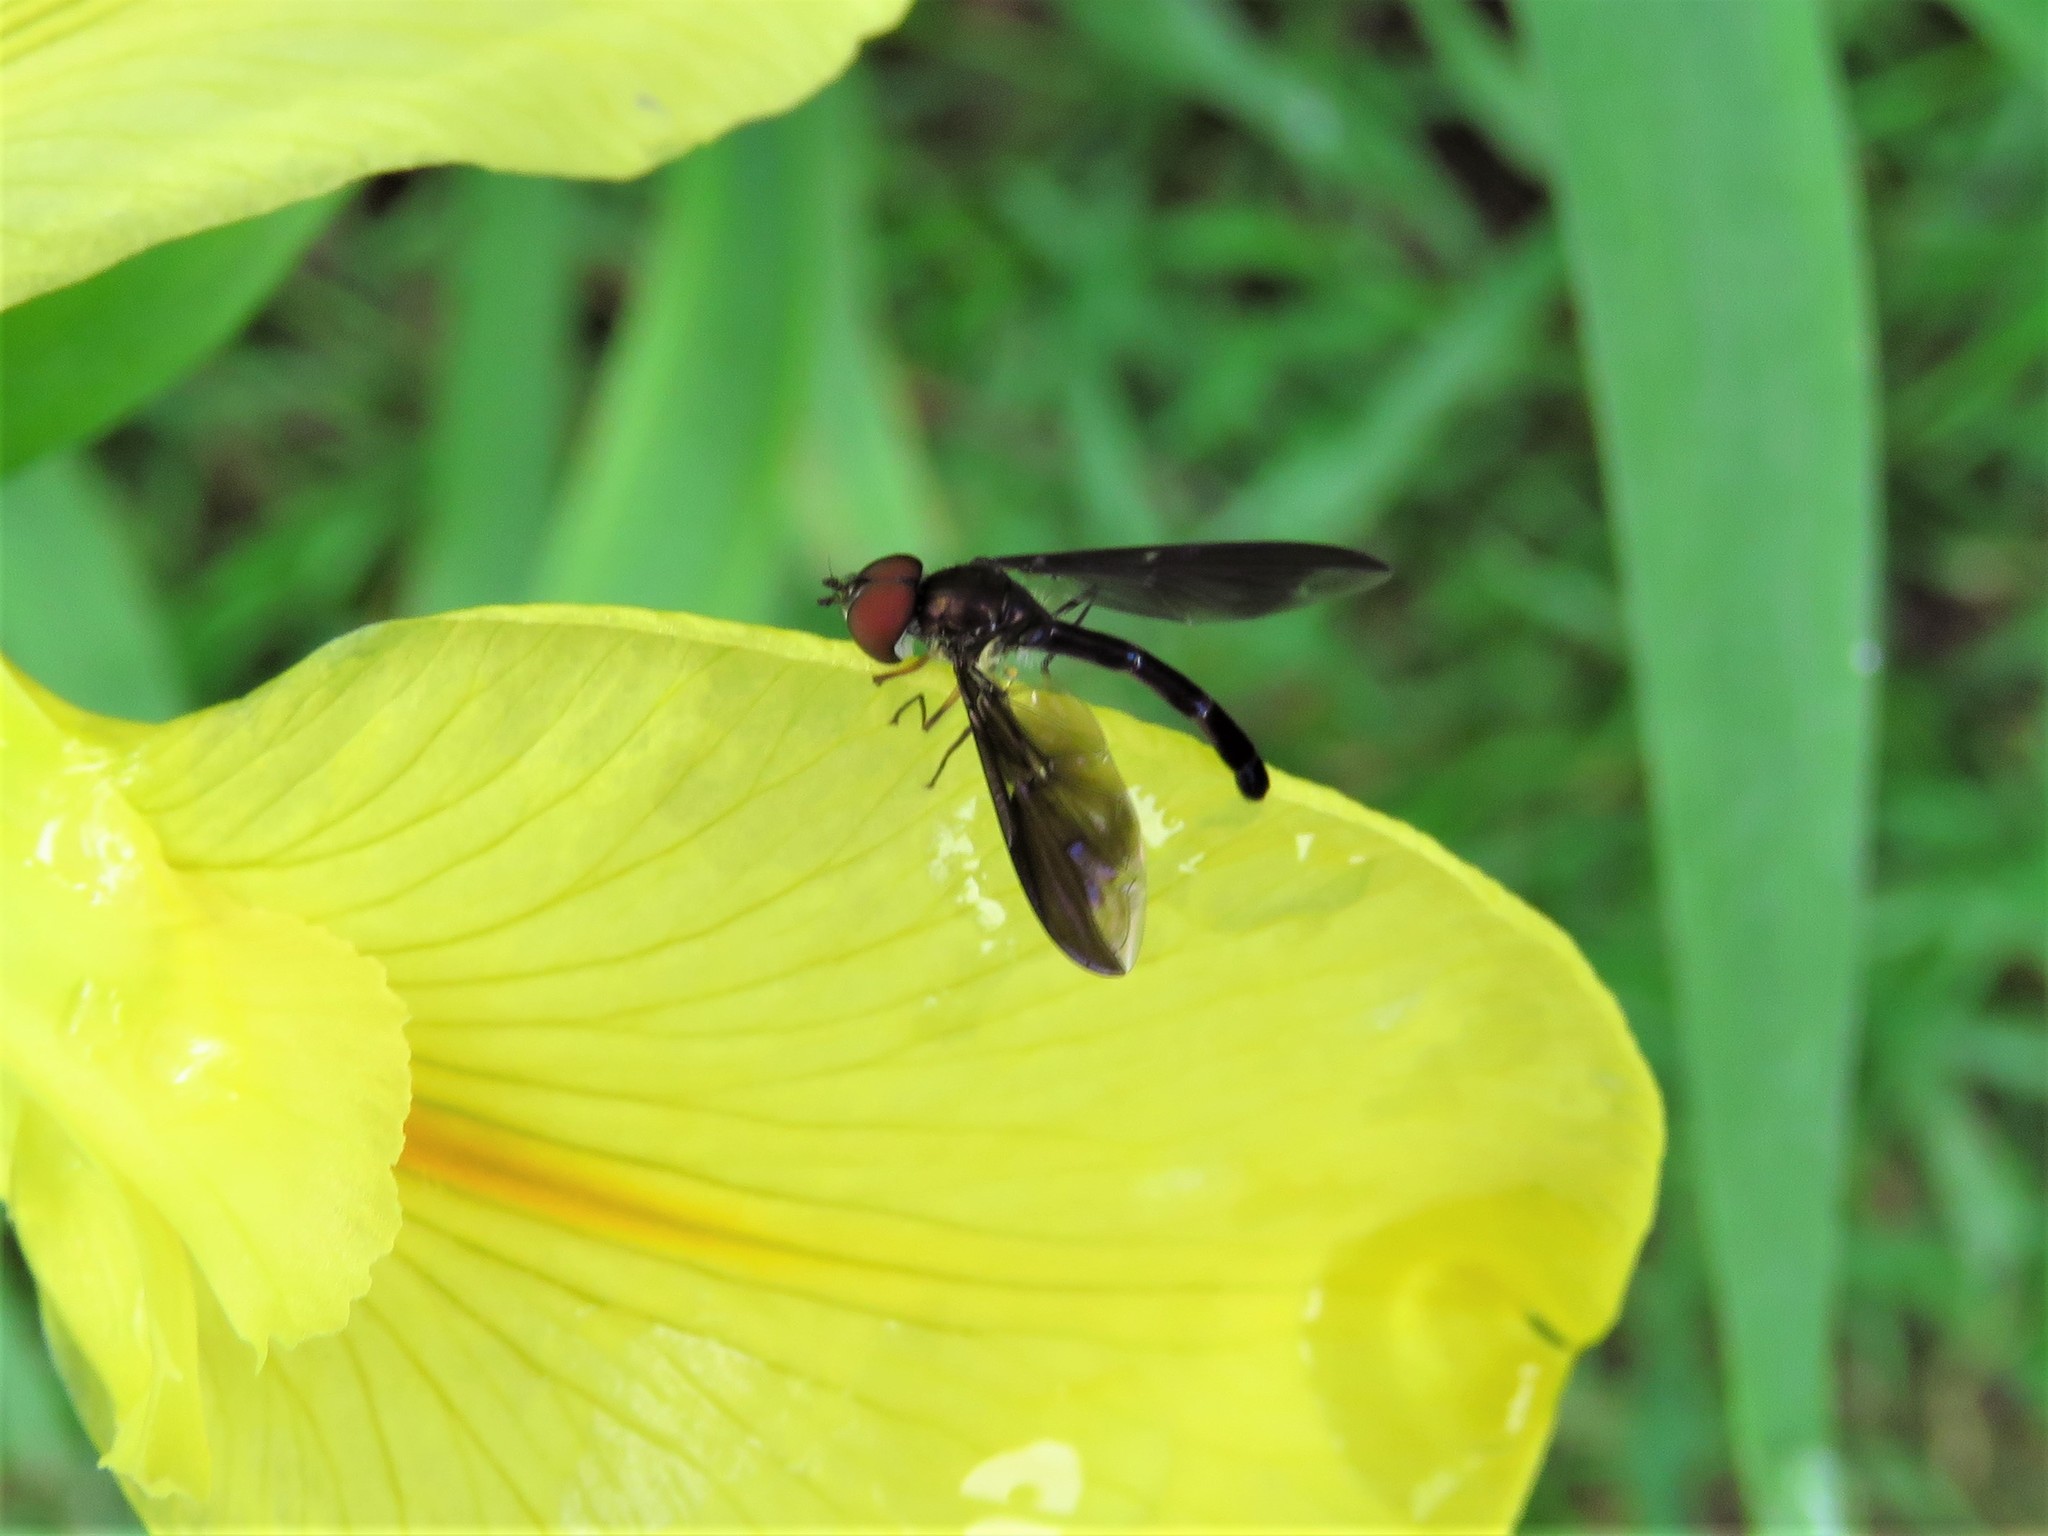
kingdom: Animalia
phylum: Arthropoda
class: Insecta
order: Diptera
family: Syrphidae
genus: Ocyptamus
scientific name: Ocyptamus fuscipennis
